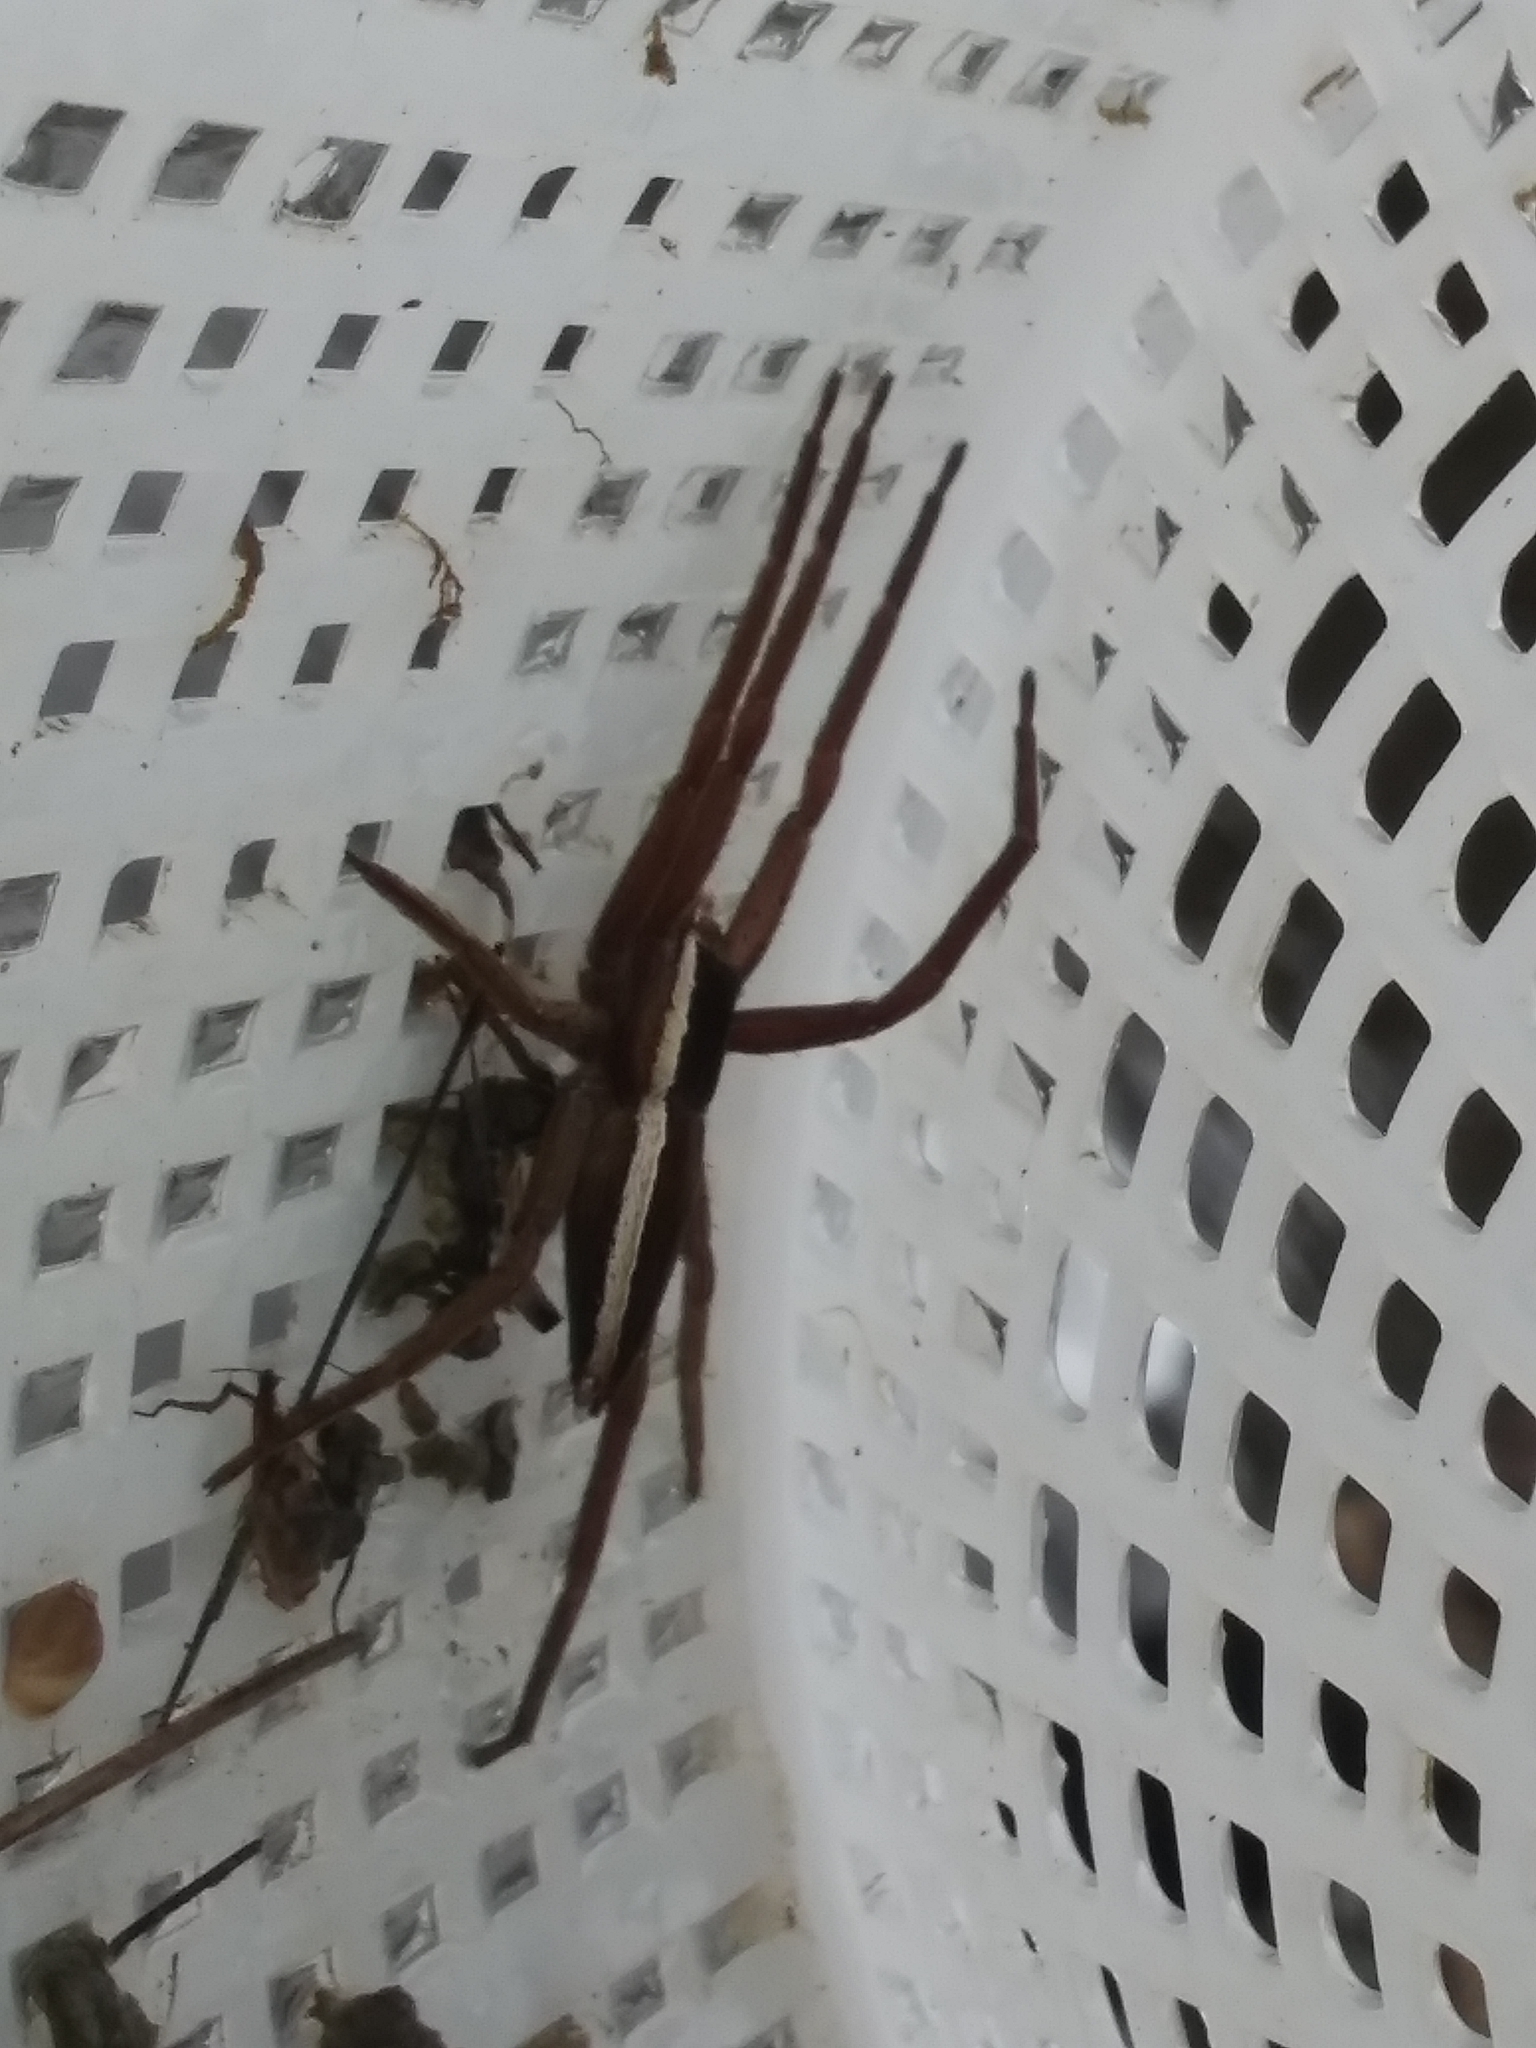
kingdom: Animalia
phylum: Arthropoda
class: Arachnida
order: Araneae
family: Pisauridae
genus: Pisaurina
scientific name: Pisaurina brevipes
